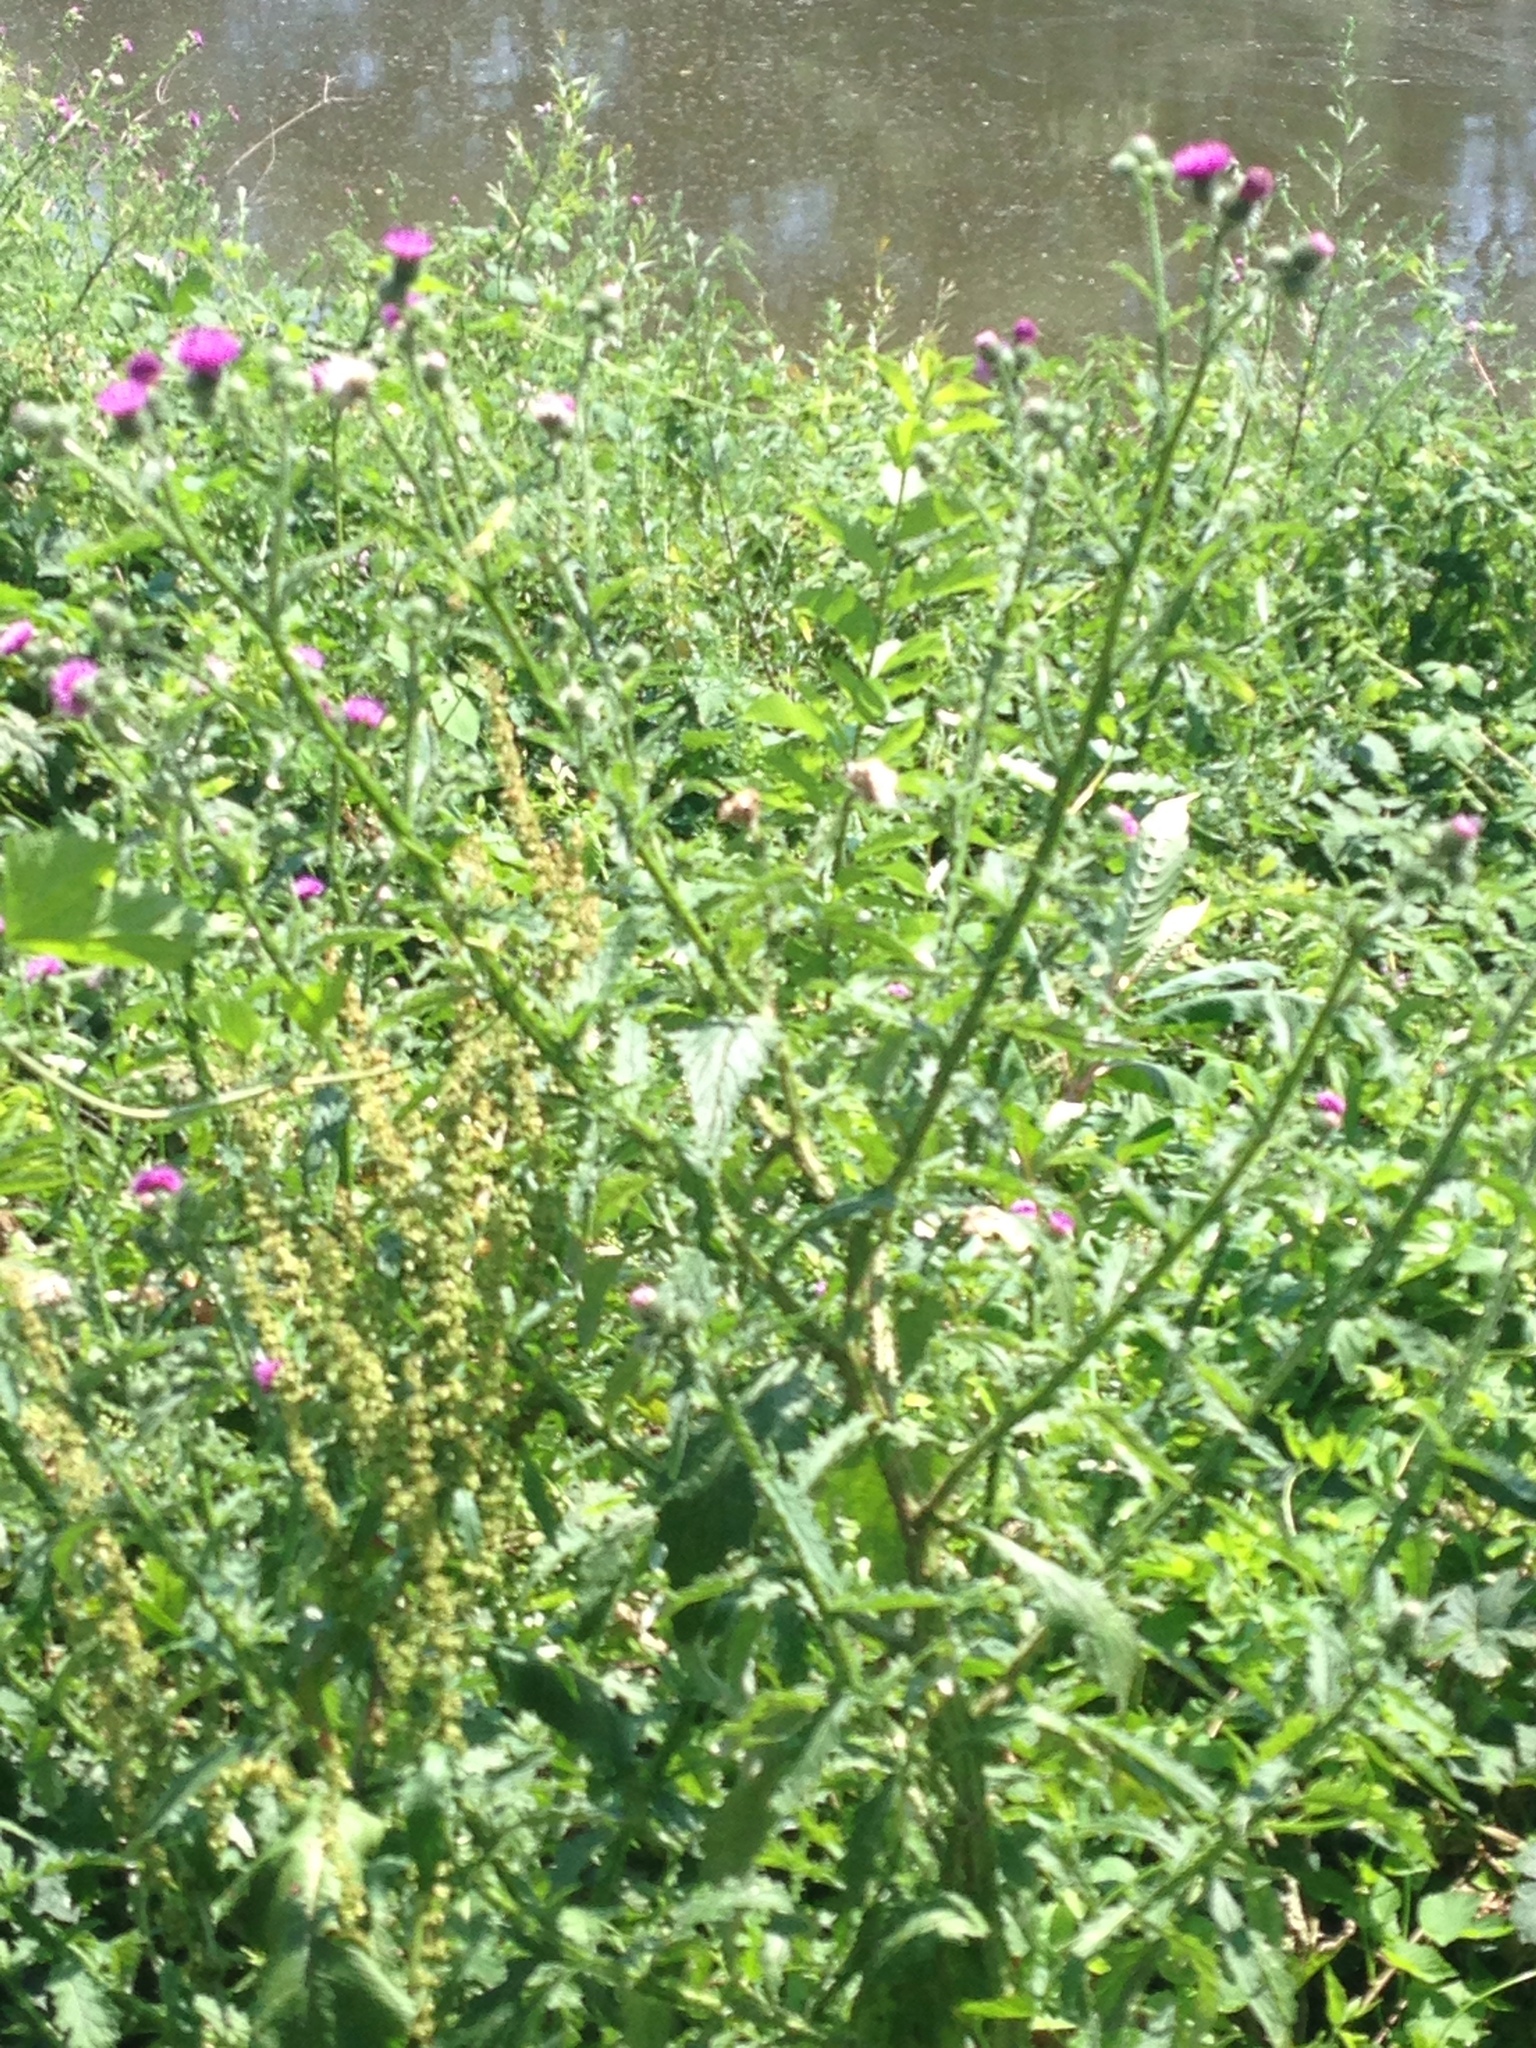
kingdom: Plantae
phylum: Tracheophyta
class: Magnoliopsida
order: Asterales
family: Asteraceae
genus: Carduus
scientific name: Carduus crispus
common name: Welted thistle
